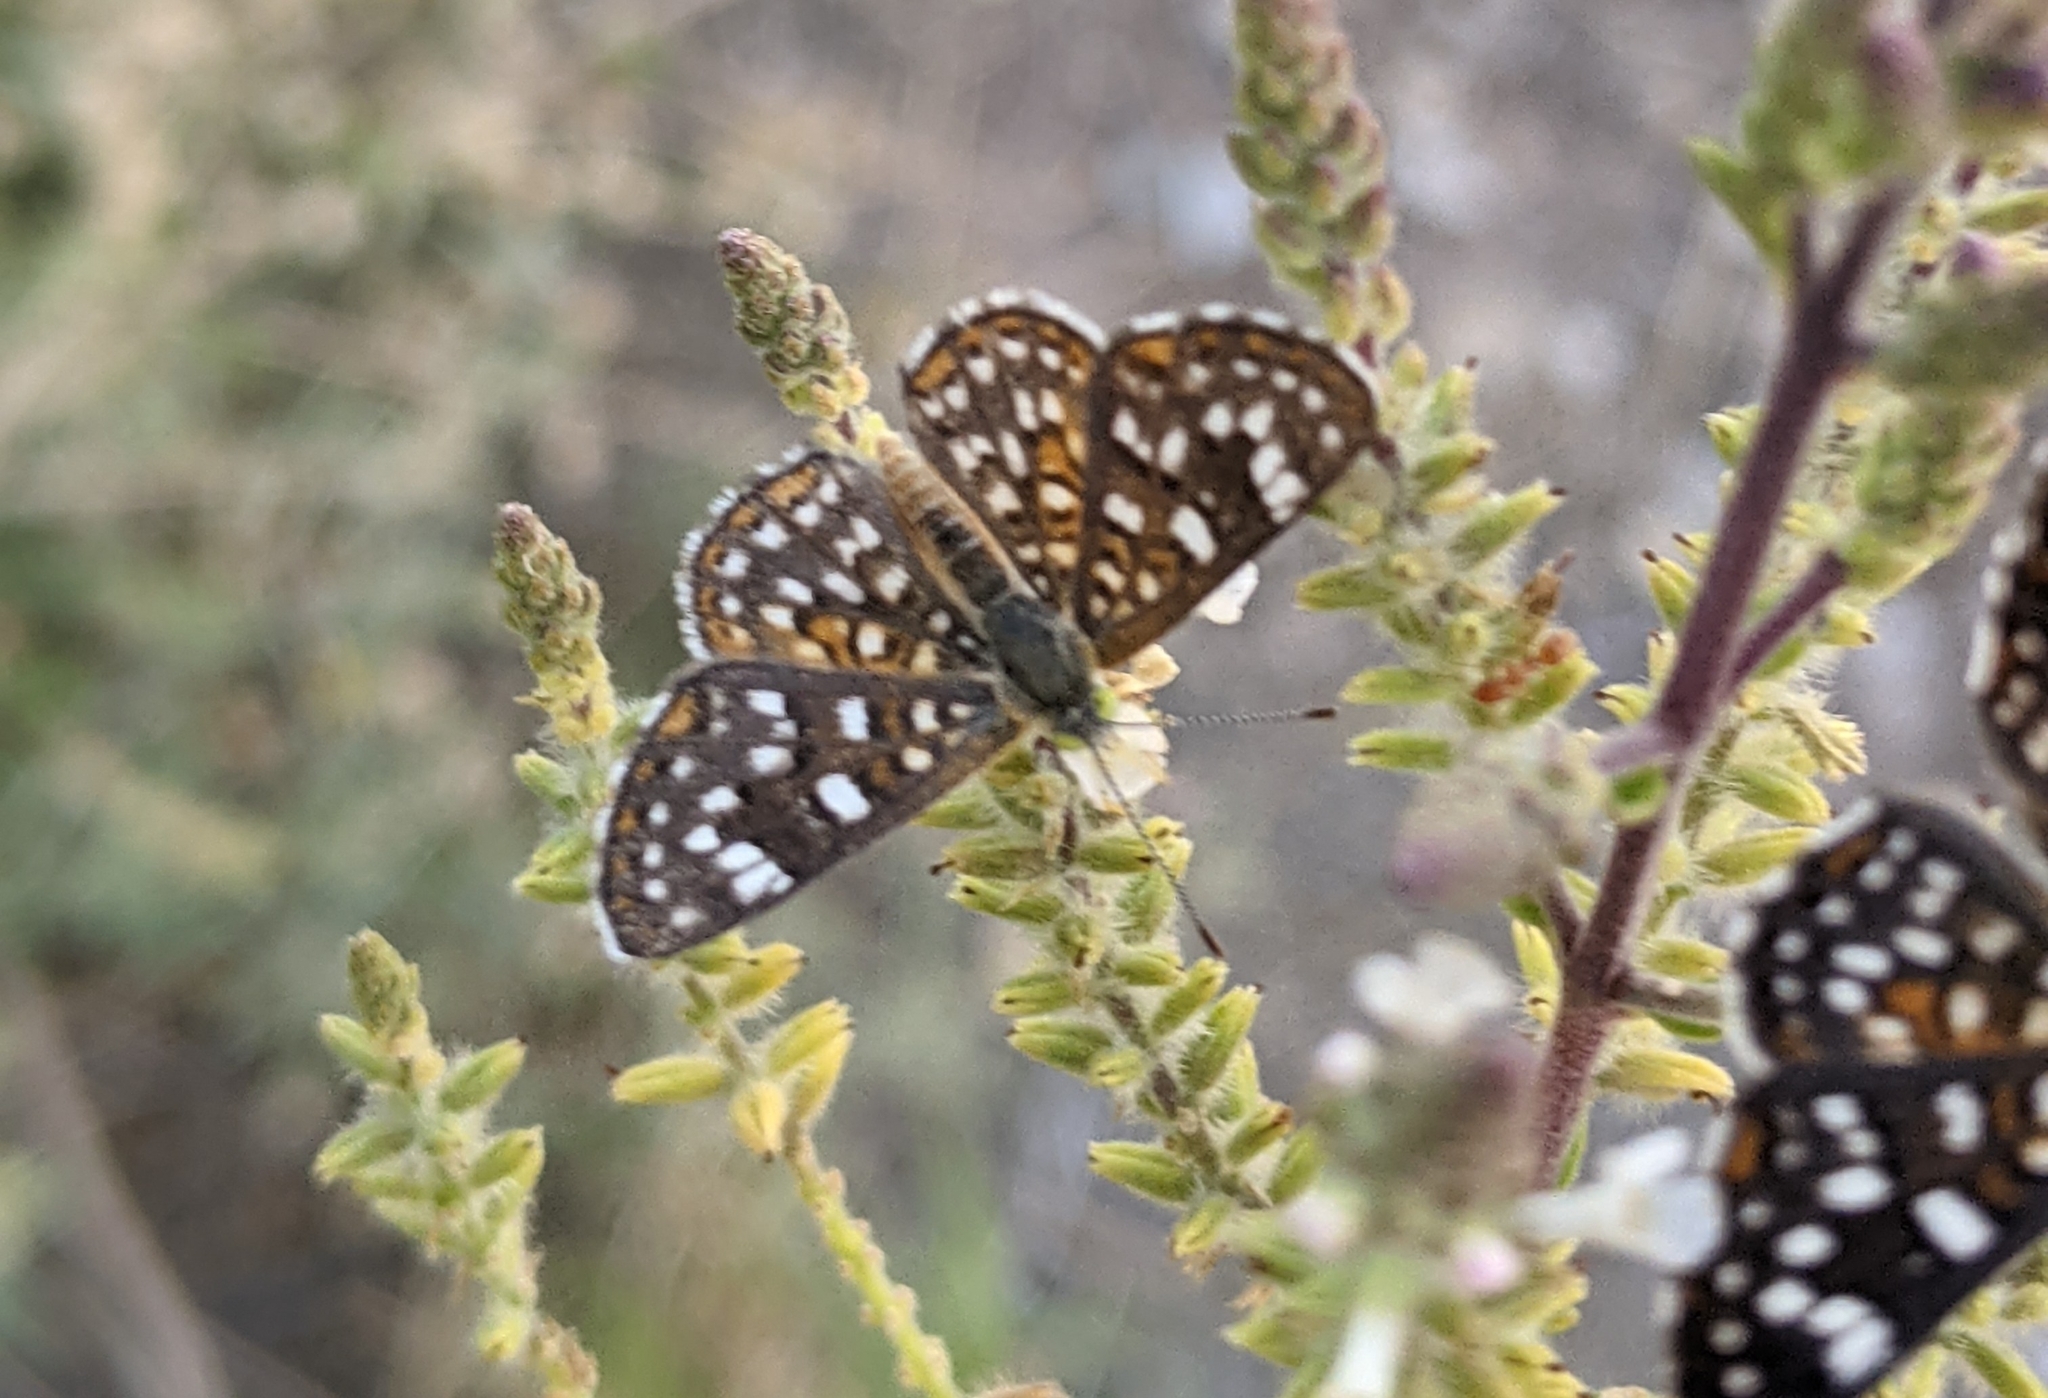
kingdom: Animalia
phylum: Arthropoda
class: Insecta
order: Lepidoptera
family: Riodinidae
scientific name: Riodinidae
